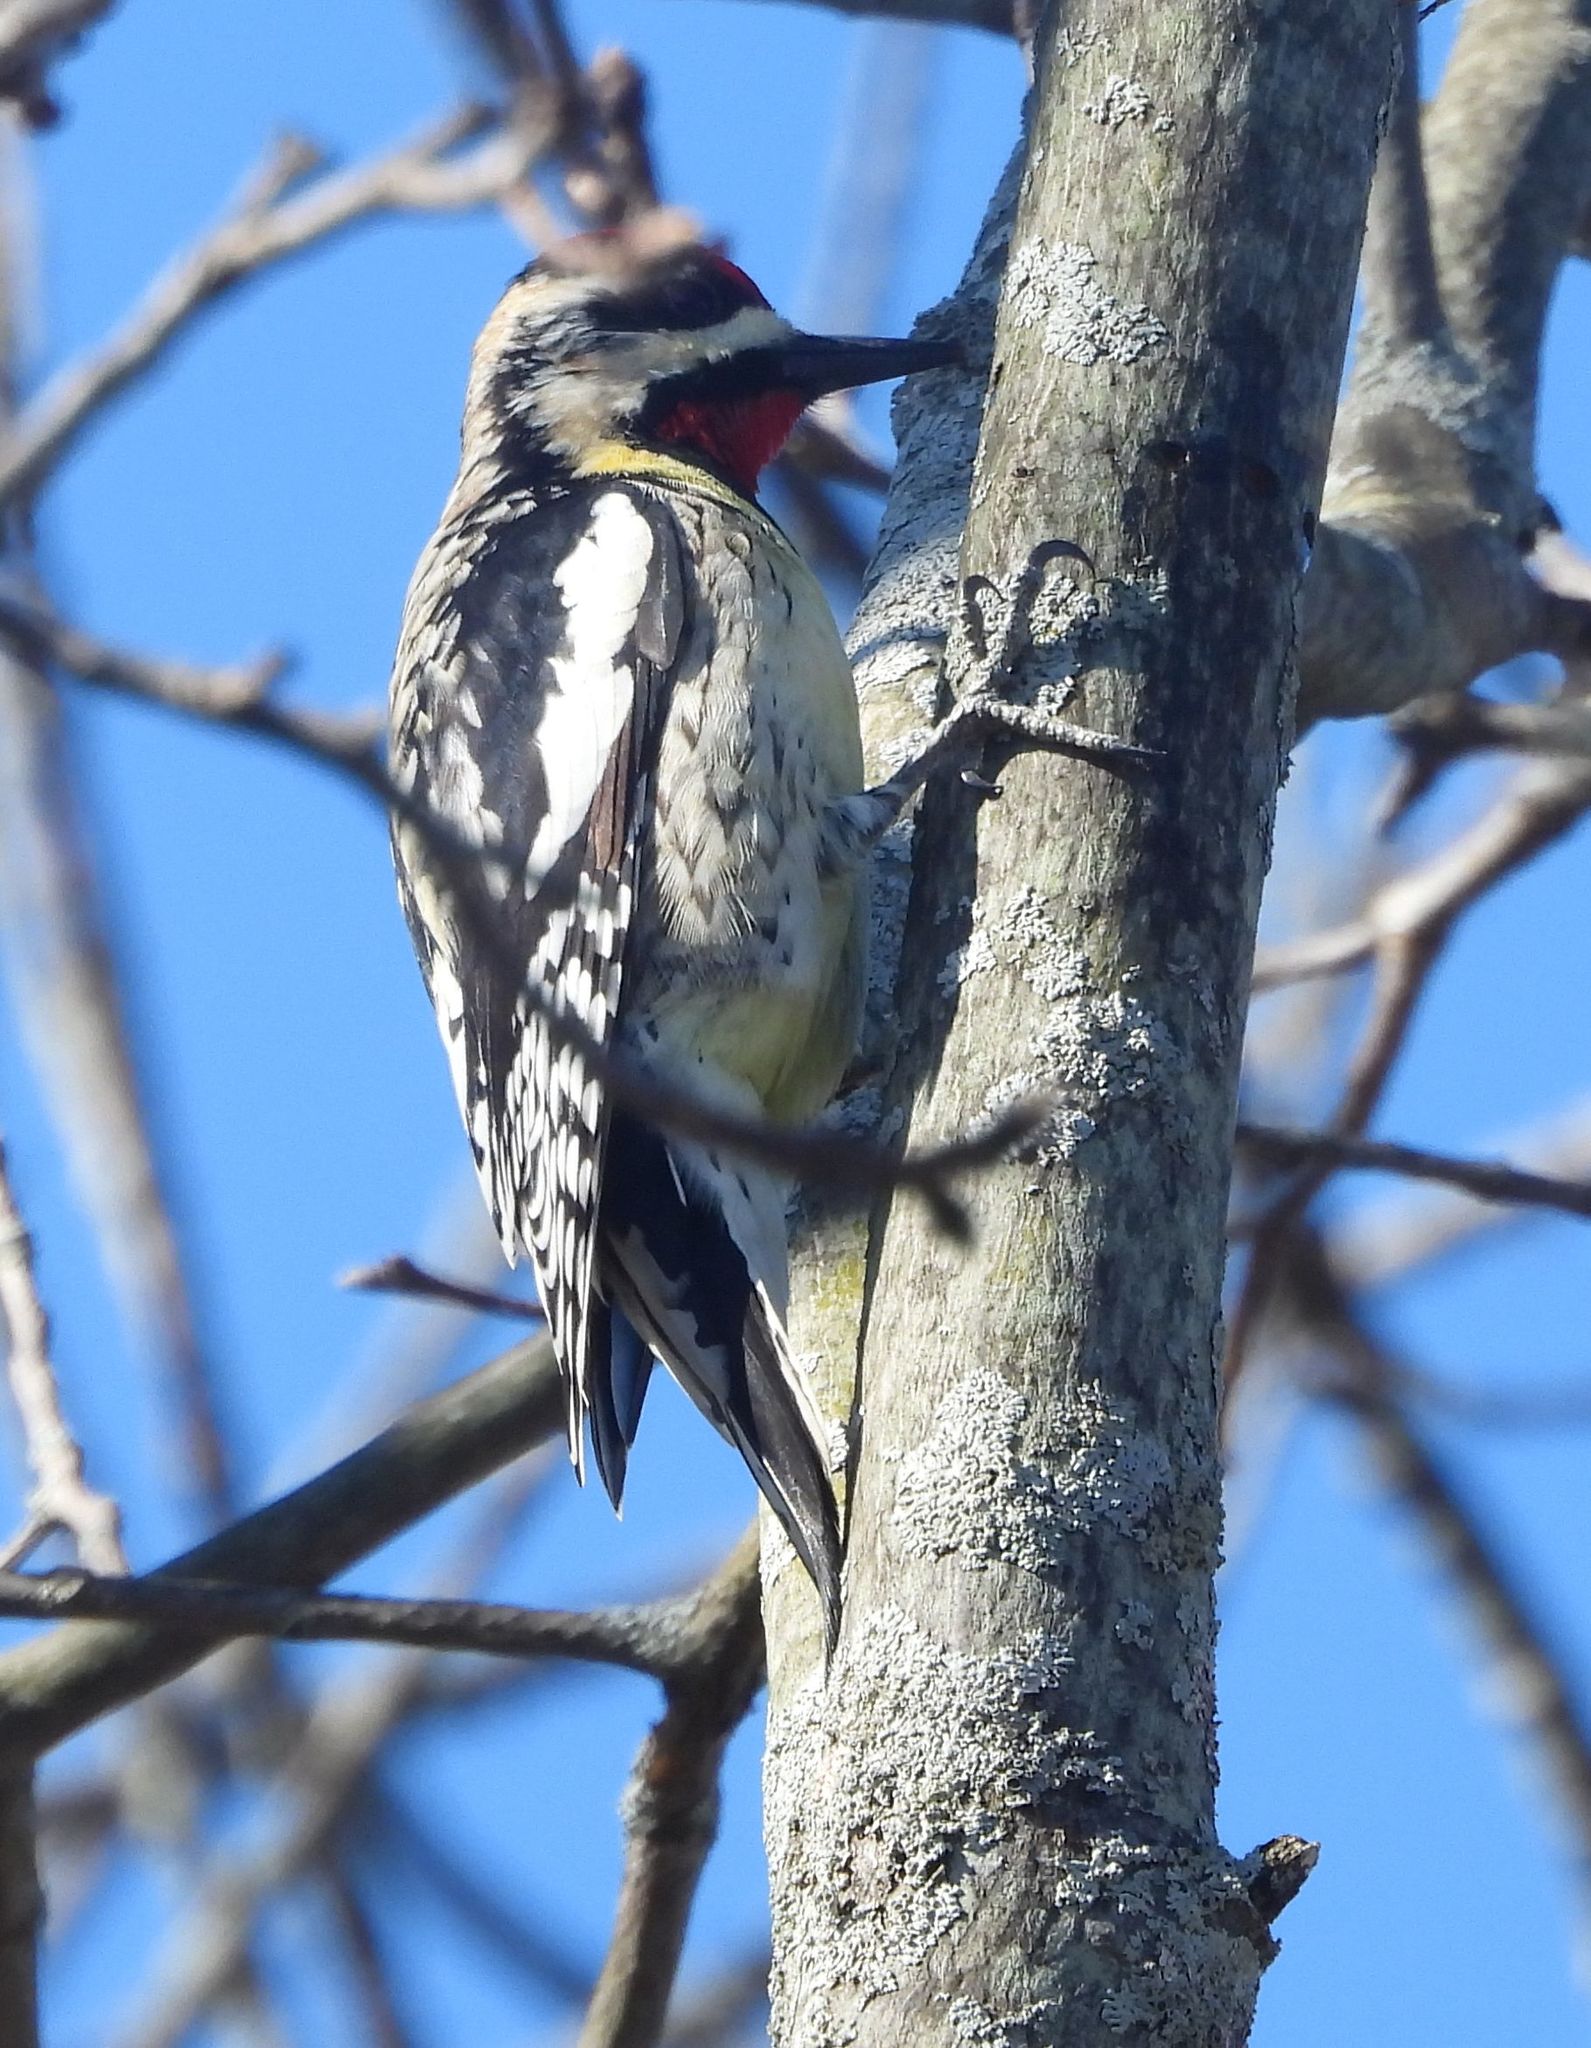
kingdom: Animalia
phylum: Chordata
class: Aves
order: Piciformes
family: Picidae
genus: Sphyrapicus
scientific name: Sphyrapicus varius
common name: Yellow-bellied sapsucker
